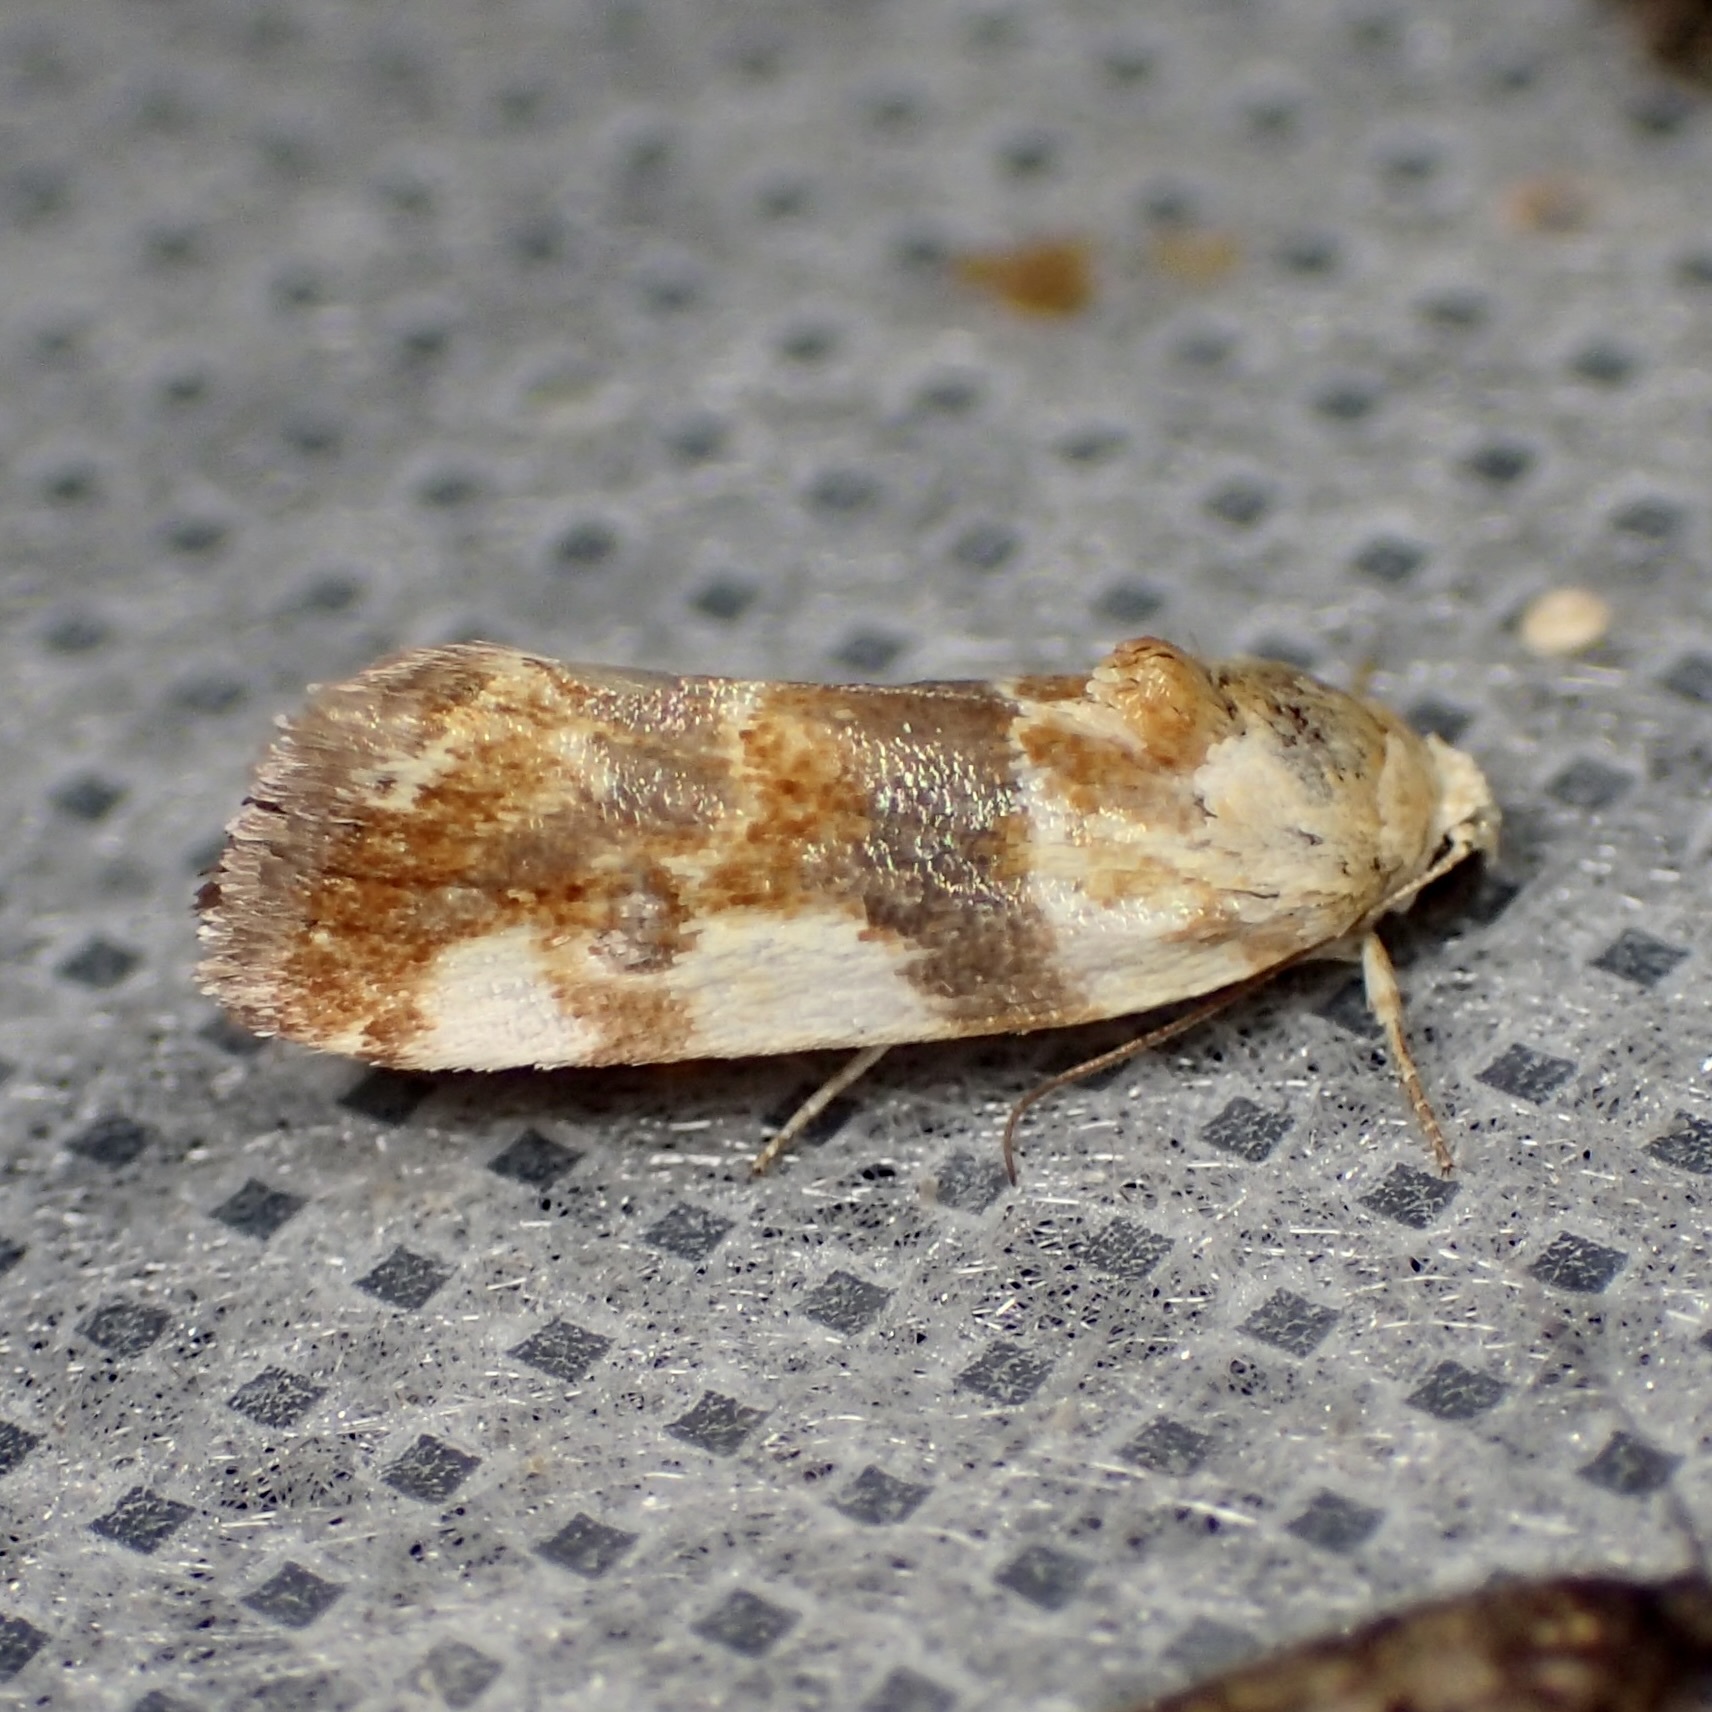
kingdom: Animalia
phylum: Arthropoda
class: Insecta
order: Lepidoptera
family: Noctuidae
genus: Acontia
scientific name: Acontia obatra
